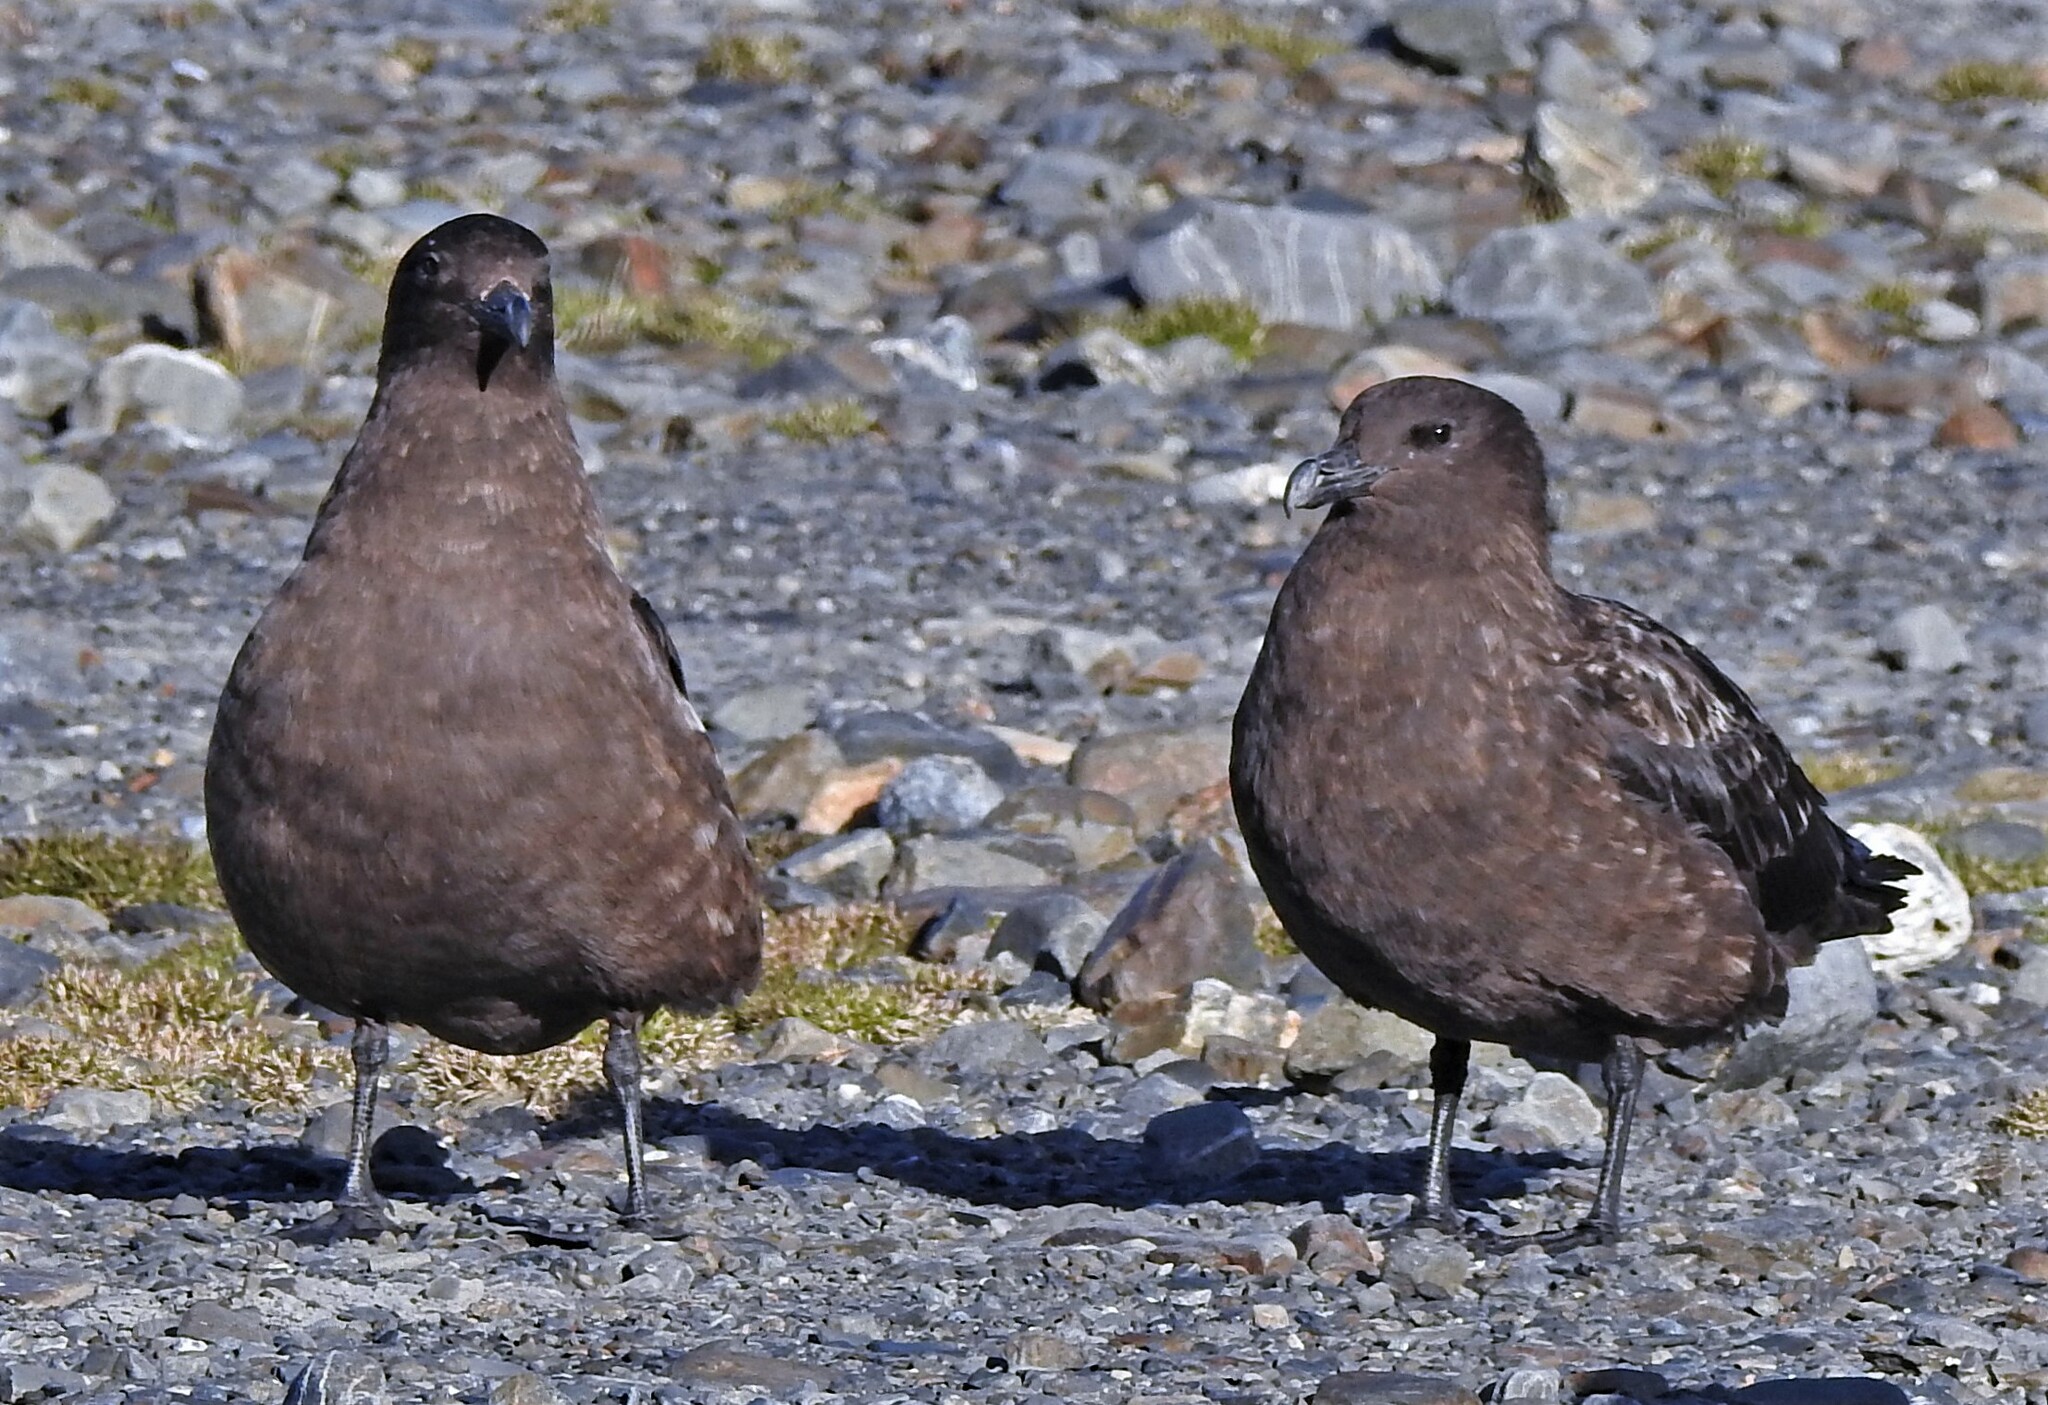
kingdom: Animalia
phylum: Chordata
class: Aves
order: Charadriiformes
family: Stercorariidae
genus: Stercorarius
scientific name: Stercorarius antarcticus
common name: Brown skua
